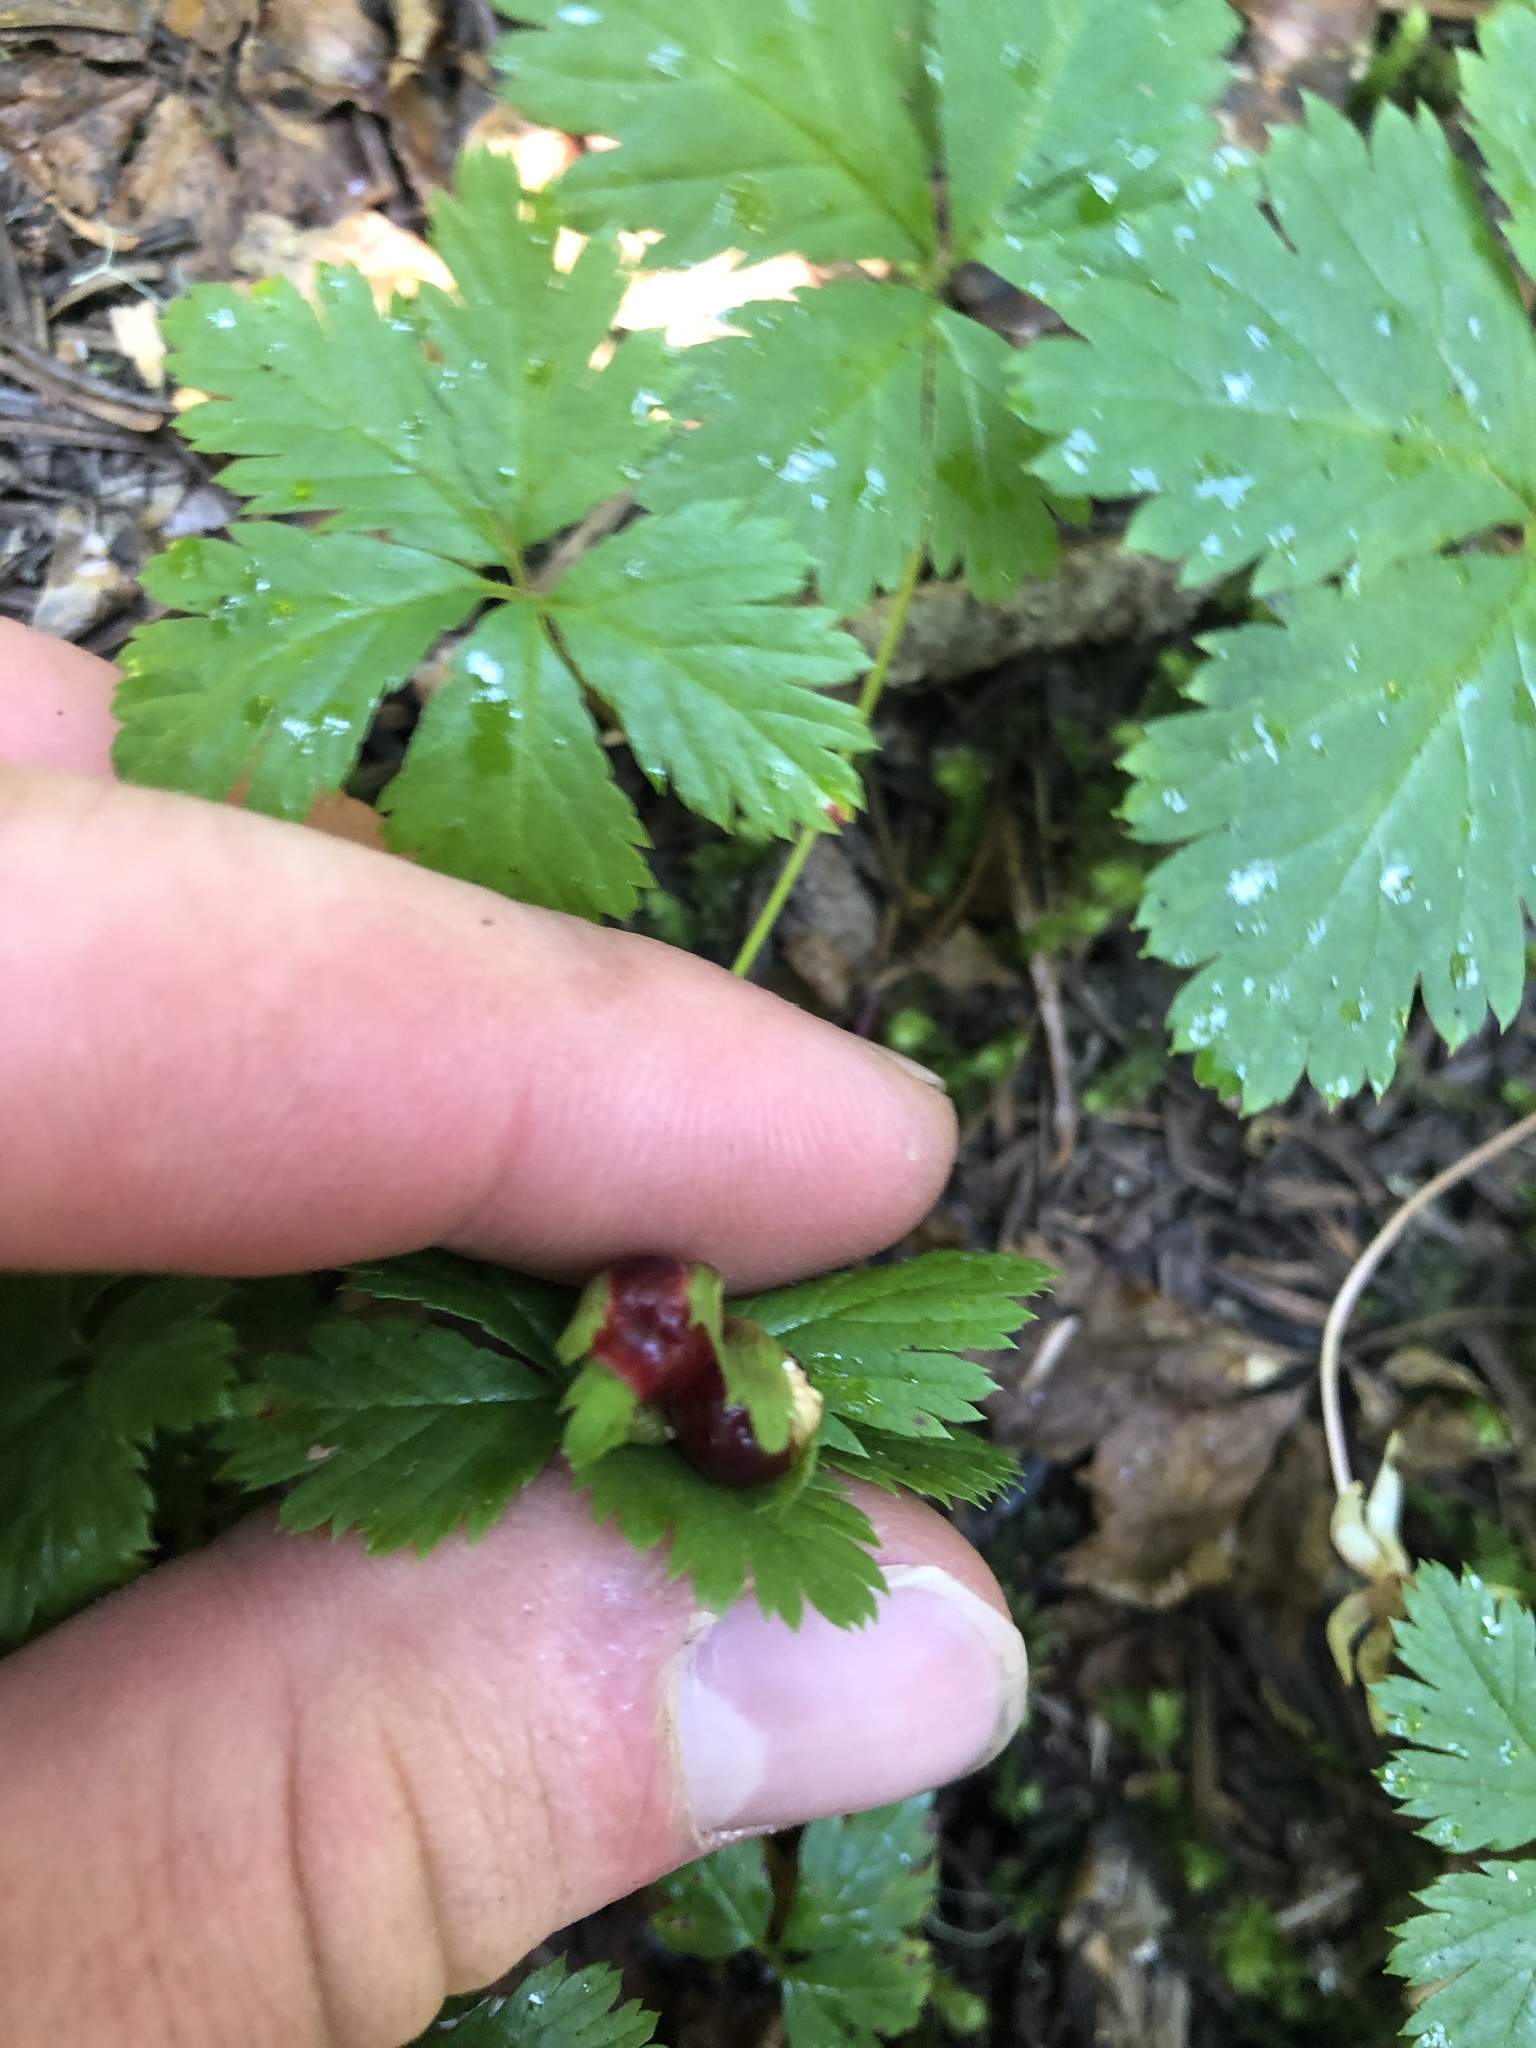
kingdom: Plantae
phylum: Tracheophyta
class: Magnoliopsida
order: Rosales
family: Rosaceae
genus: Rubus
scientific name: Rubus pedatus
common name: Creeping raspberry
